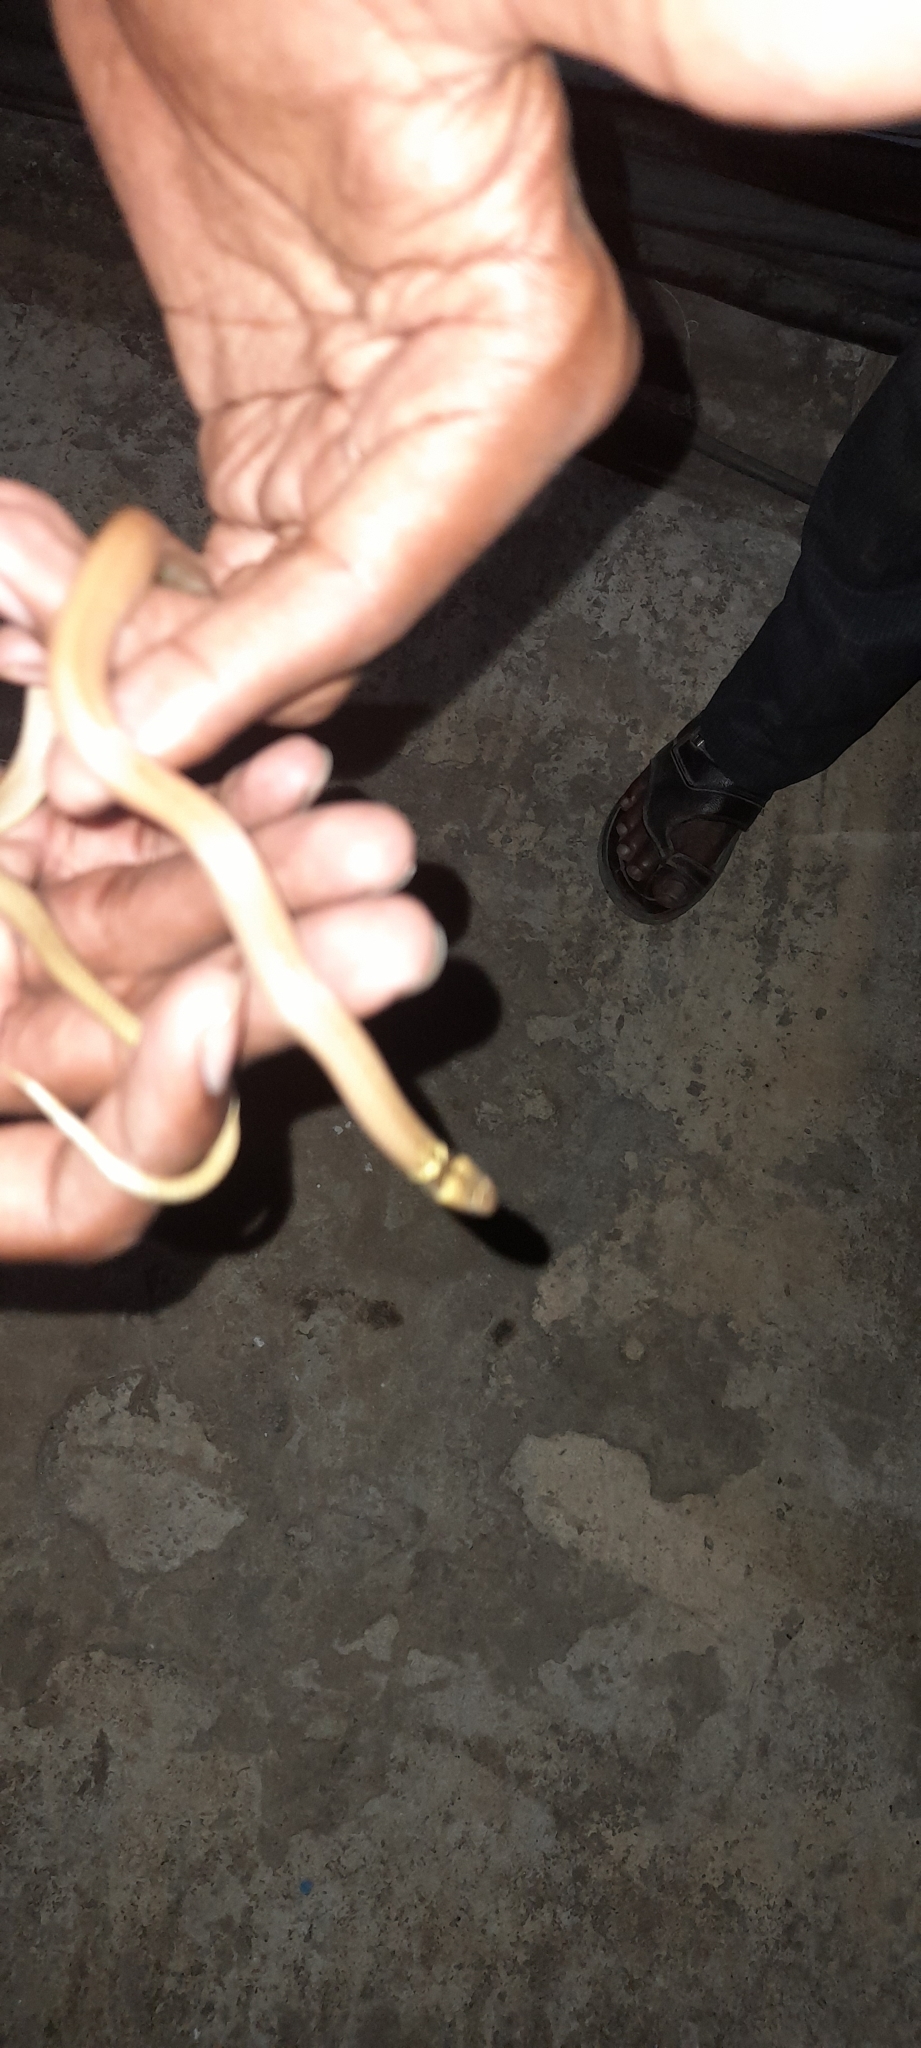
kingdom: Animalia
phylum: Chordata
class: Squamata
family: Colubridae
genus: Sibynophis
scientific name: Sibynophis subpunctatus
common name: Black-headed snake
